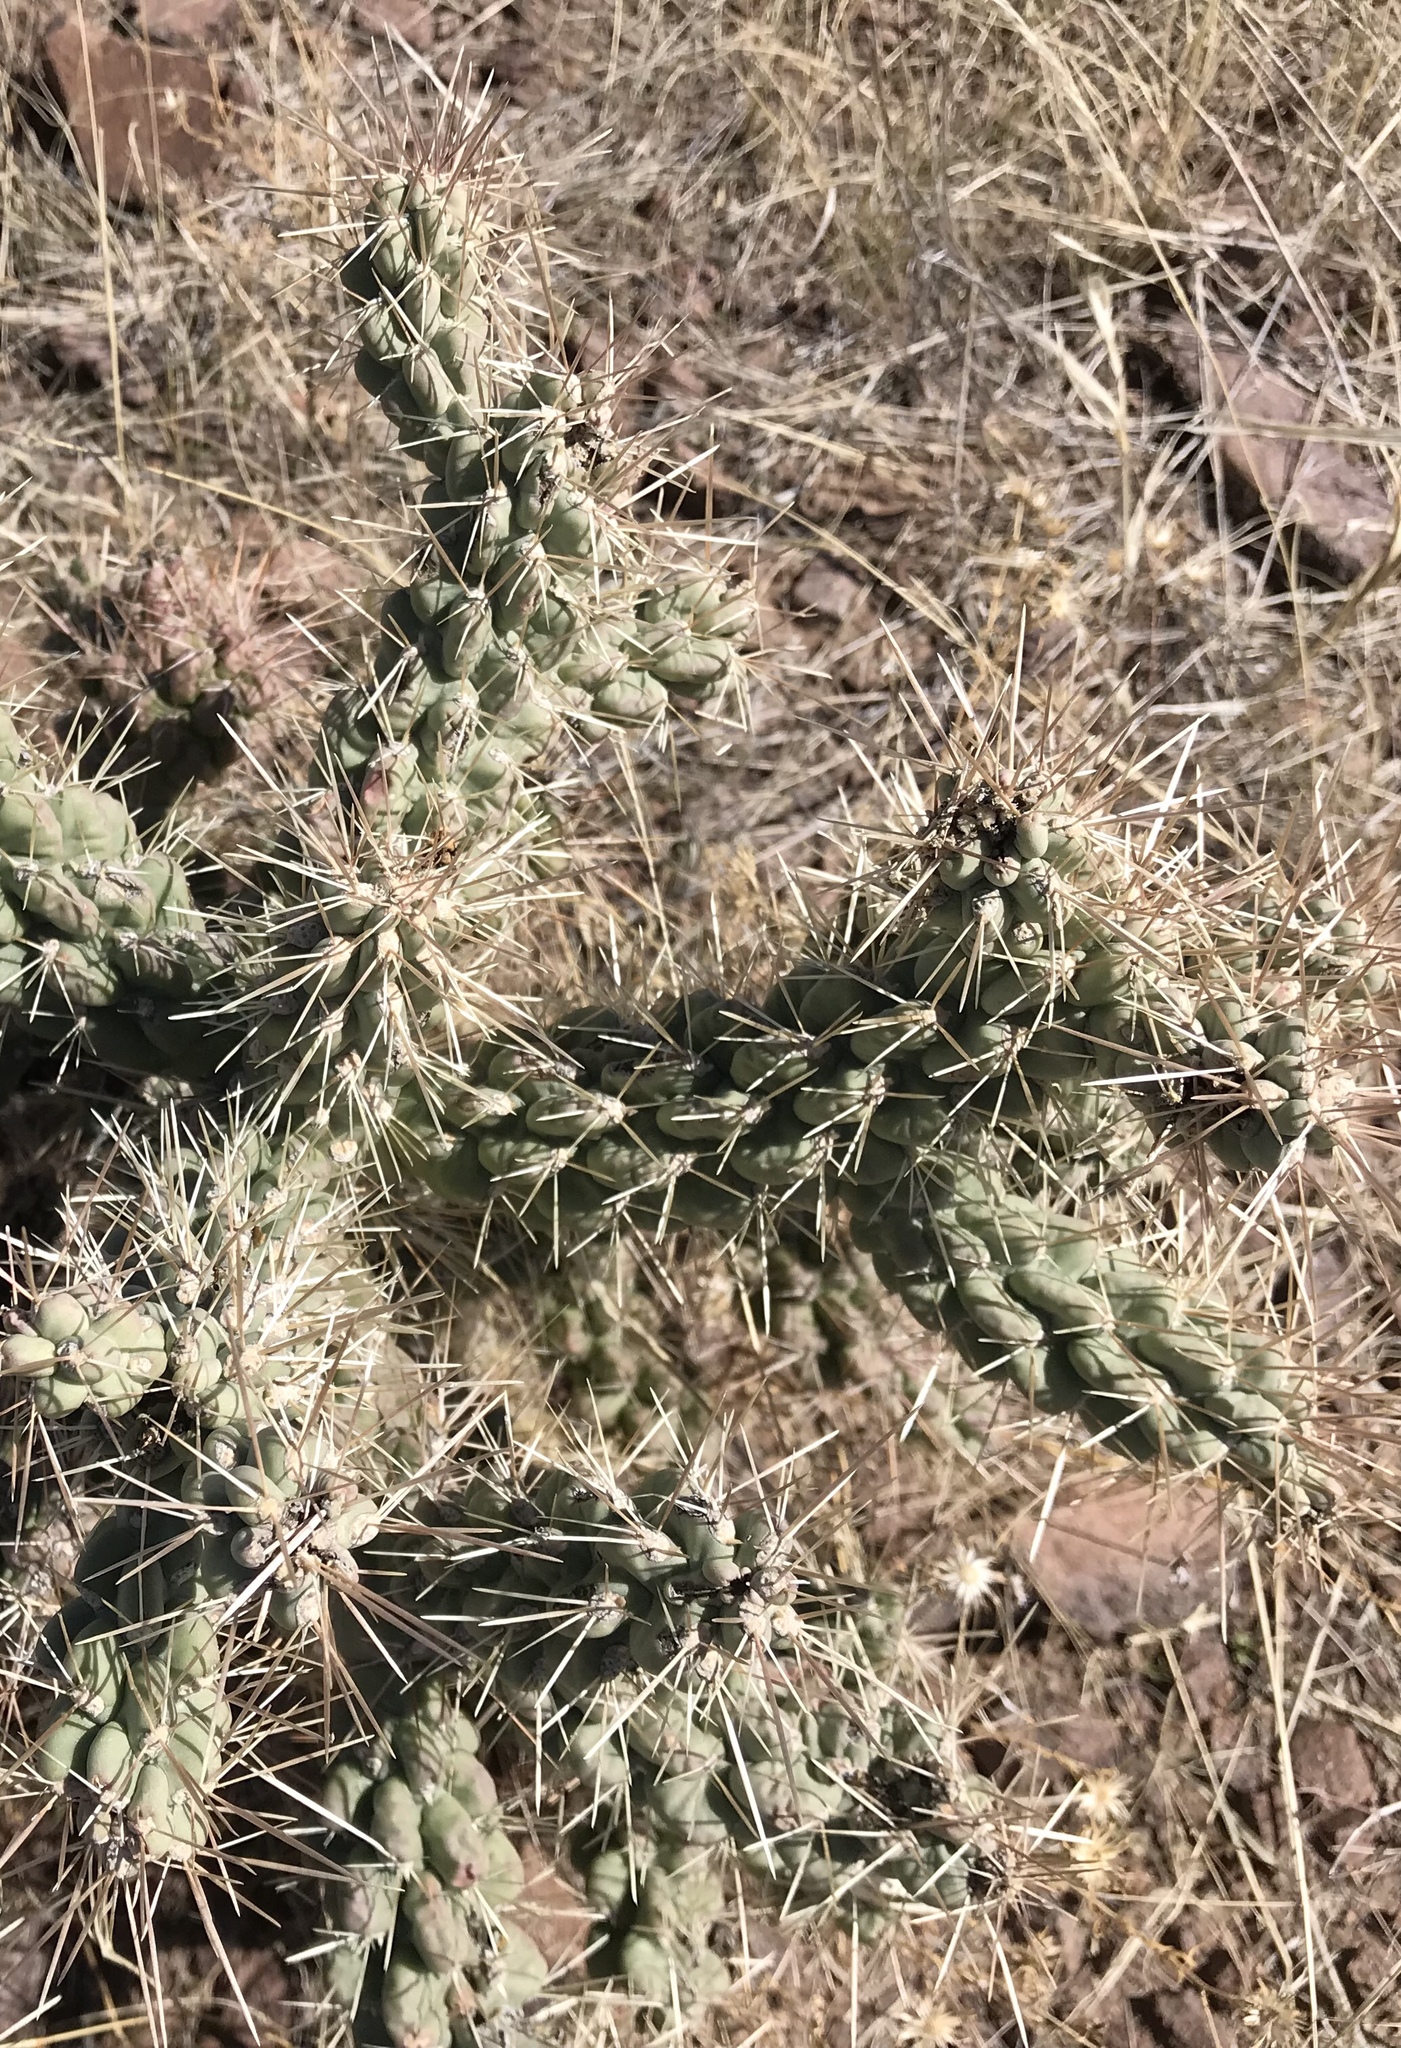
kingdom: Plantae
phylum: Tracheophyta
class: Magnoliopsida
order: Caryophyllales
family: Cactaceae
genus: Cylindropuntia
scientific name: Cylindropuntia fulgida
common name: Jumping cholla
